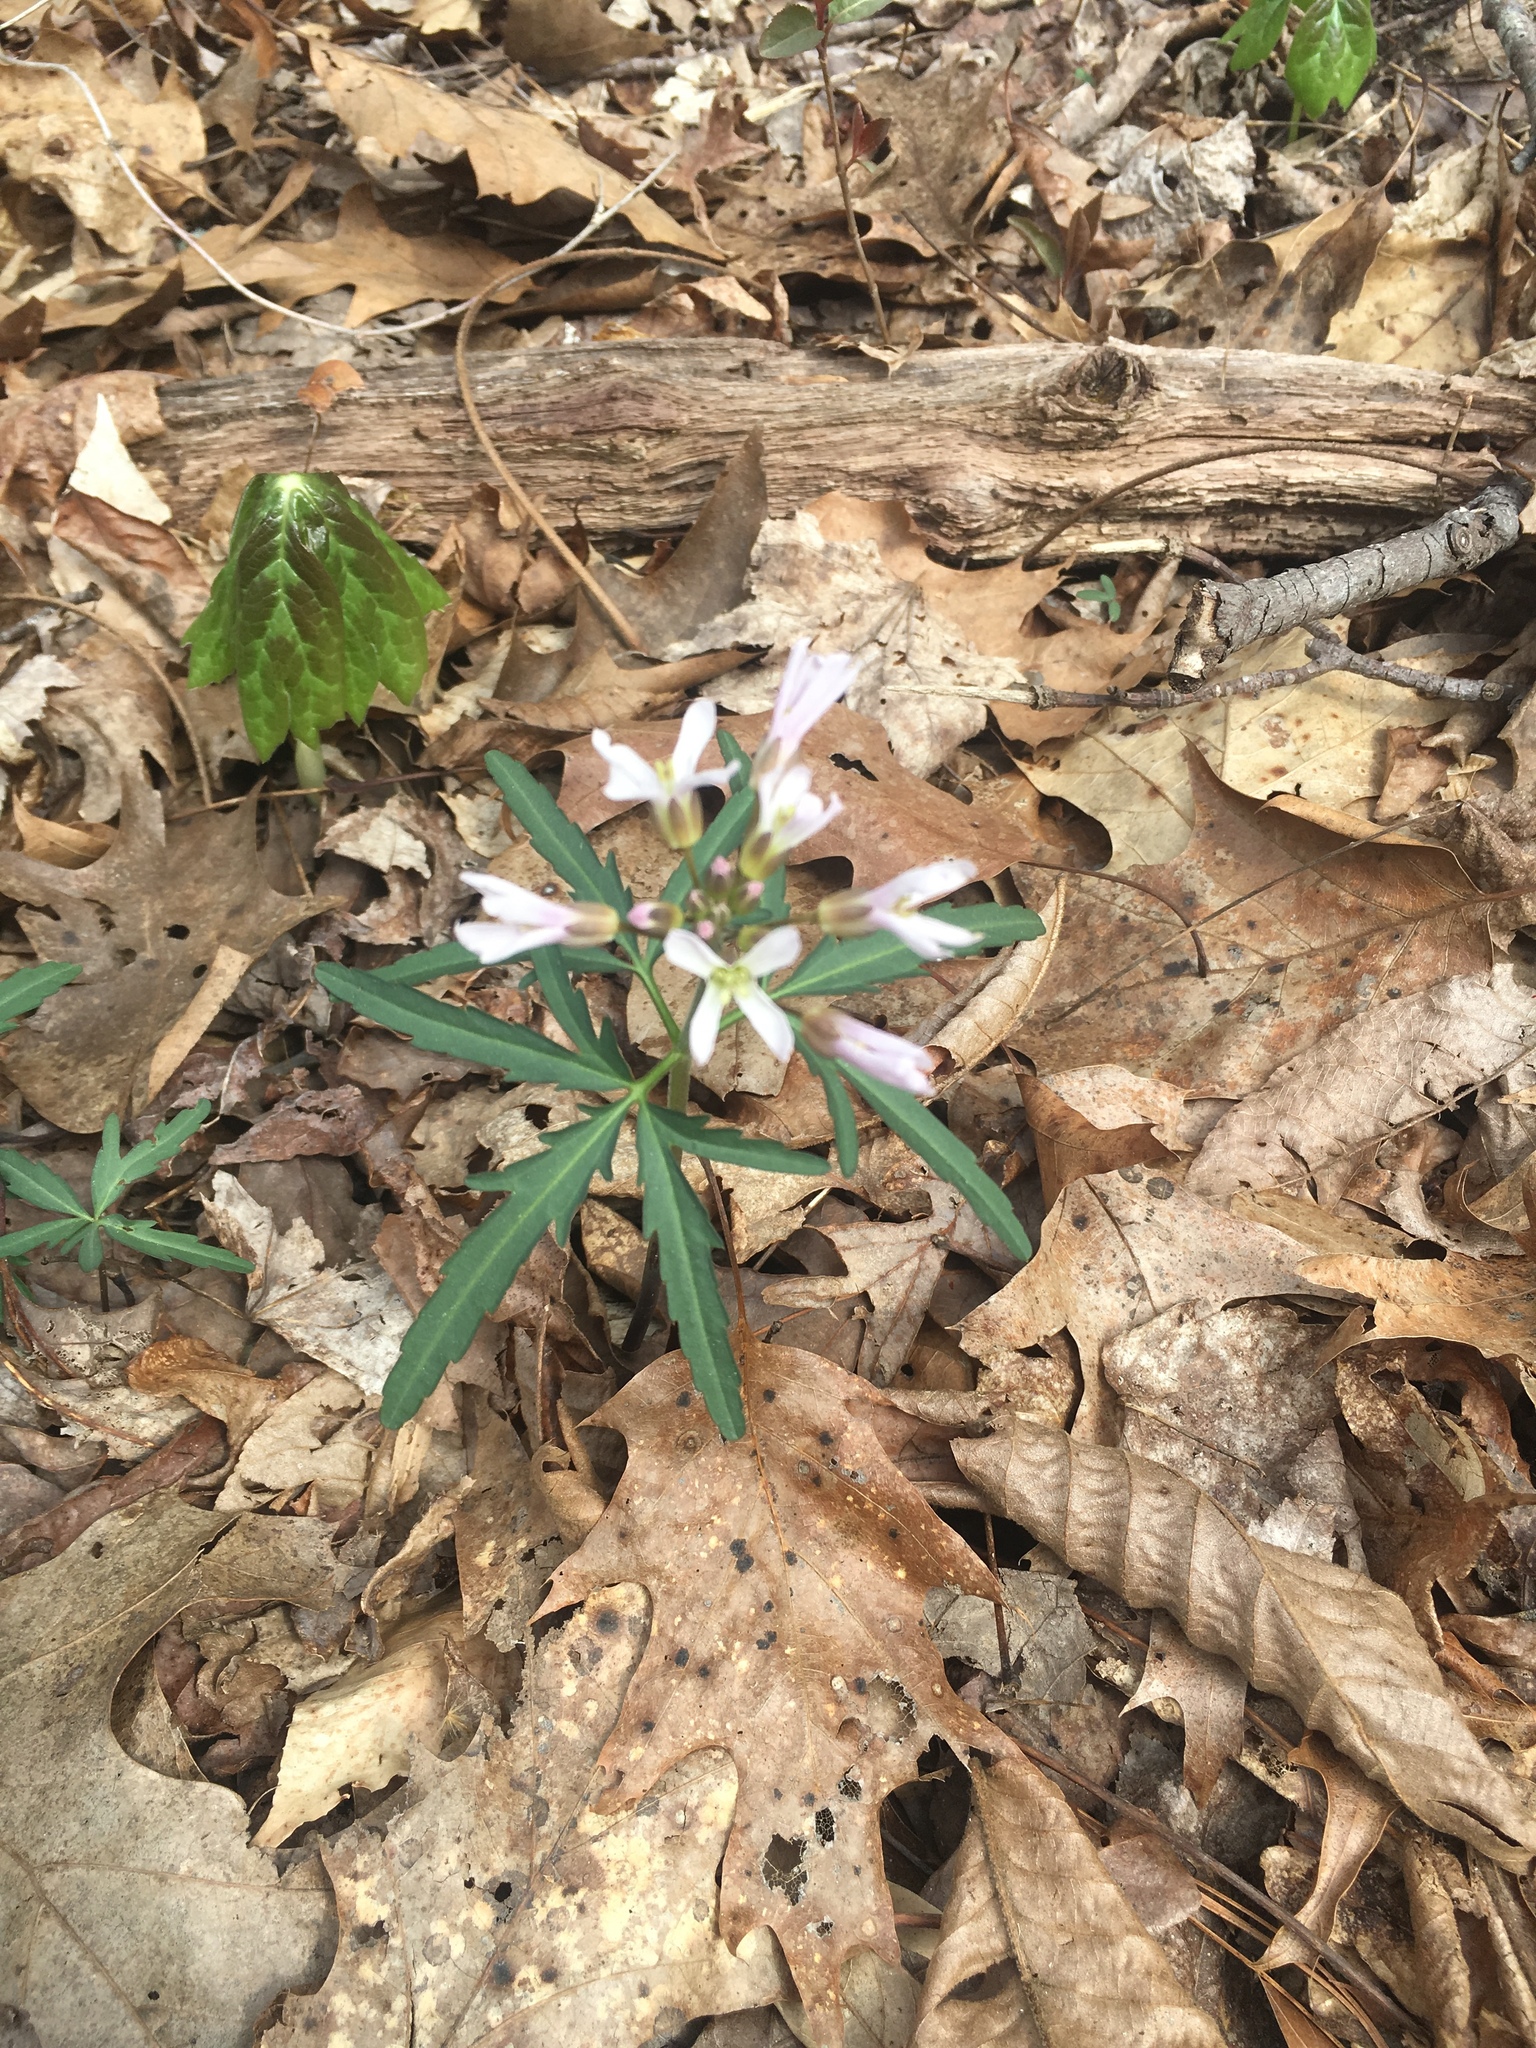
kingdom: Plantae
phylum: Tracheophyta
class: Magnoliopsida
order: Brassicales
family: Brassicaceae
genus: Cardamine
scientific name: Cardamine concatenata
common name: Cut-leaf toothcup
